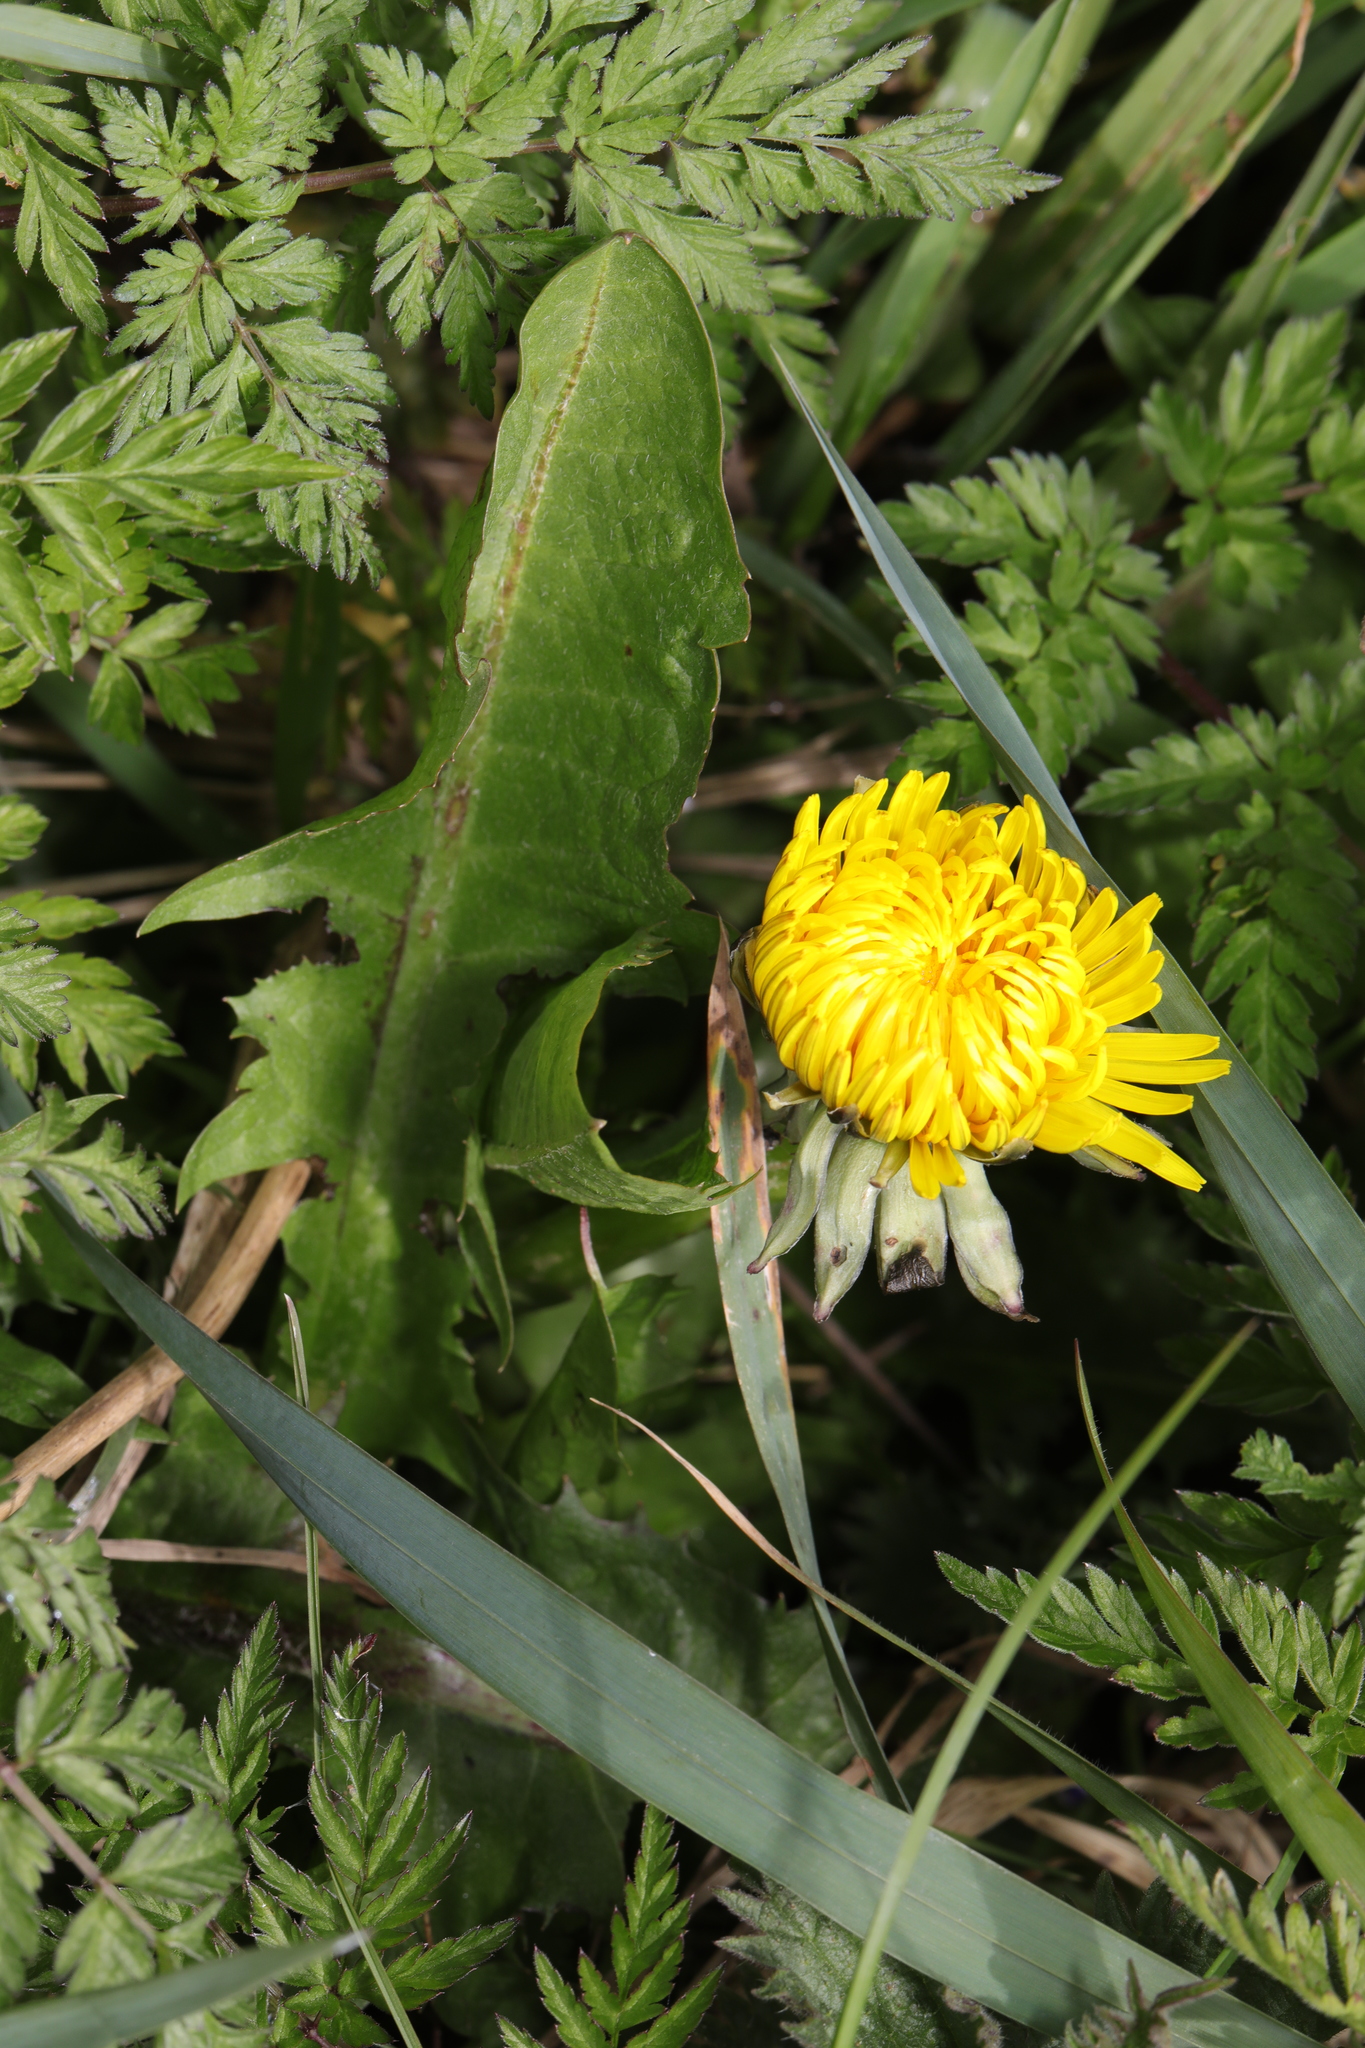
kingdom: Plantae
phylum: Tracheophyta
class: Magnoliopsida
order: Asterales
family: Asteraceae
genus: Taraxacum
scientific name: Taraxacum officinale
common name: Common dandelion
